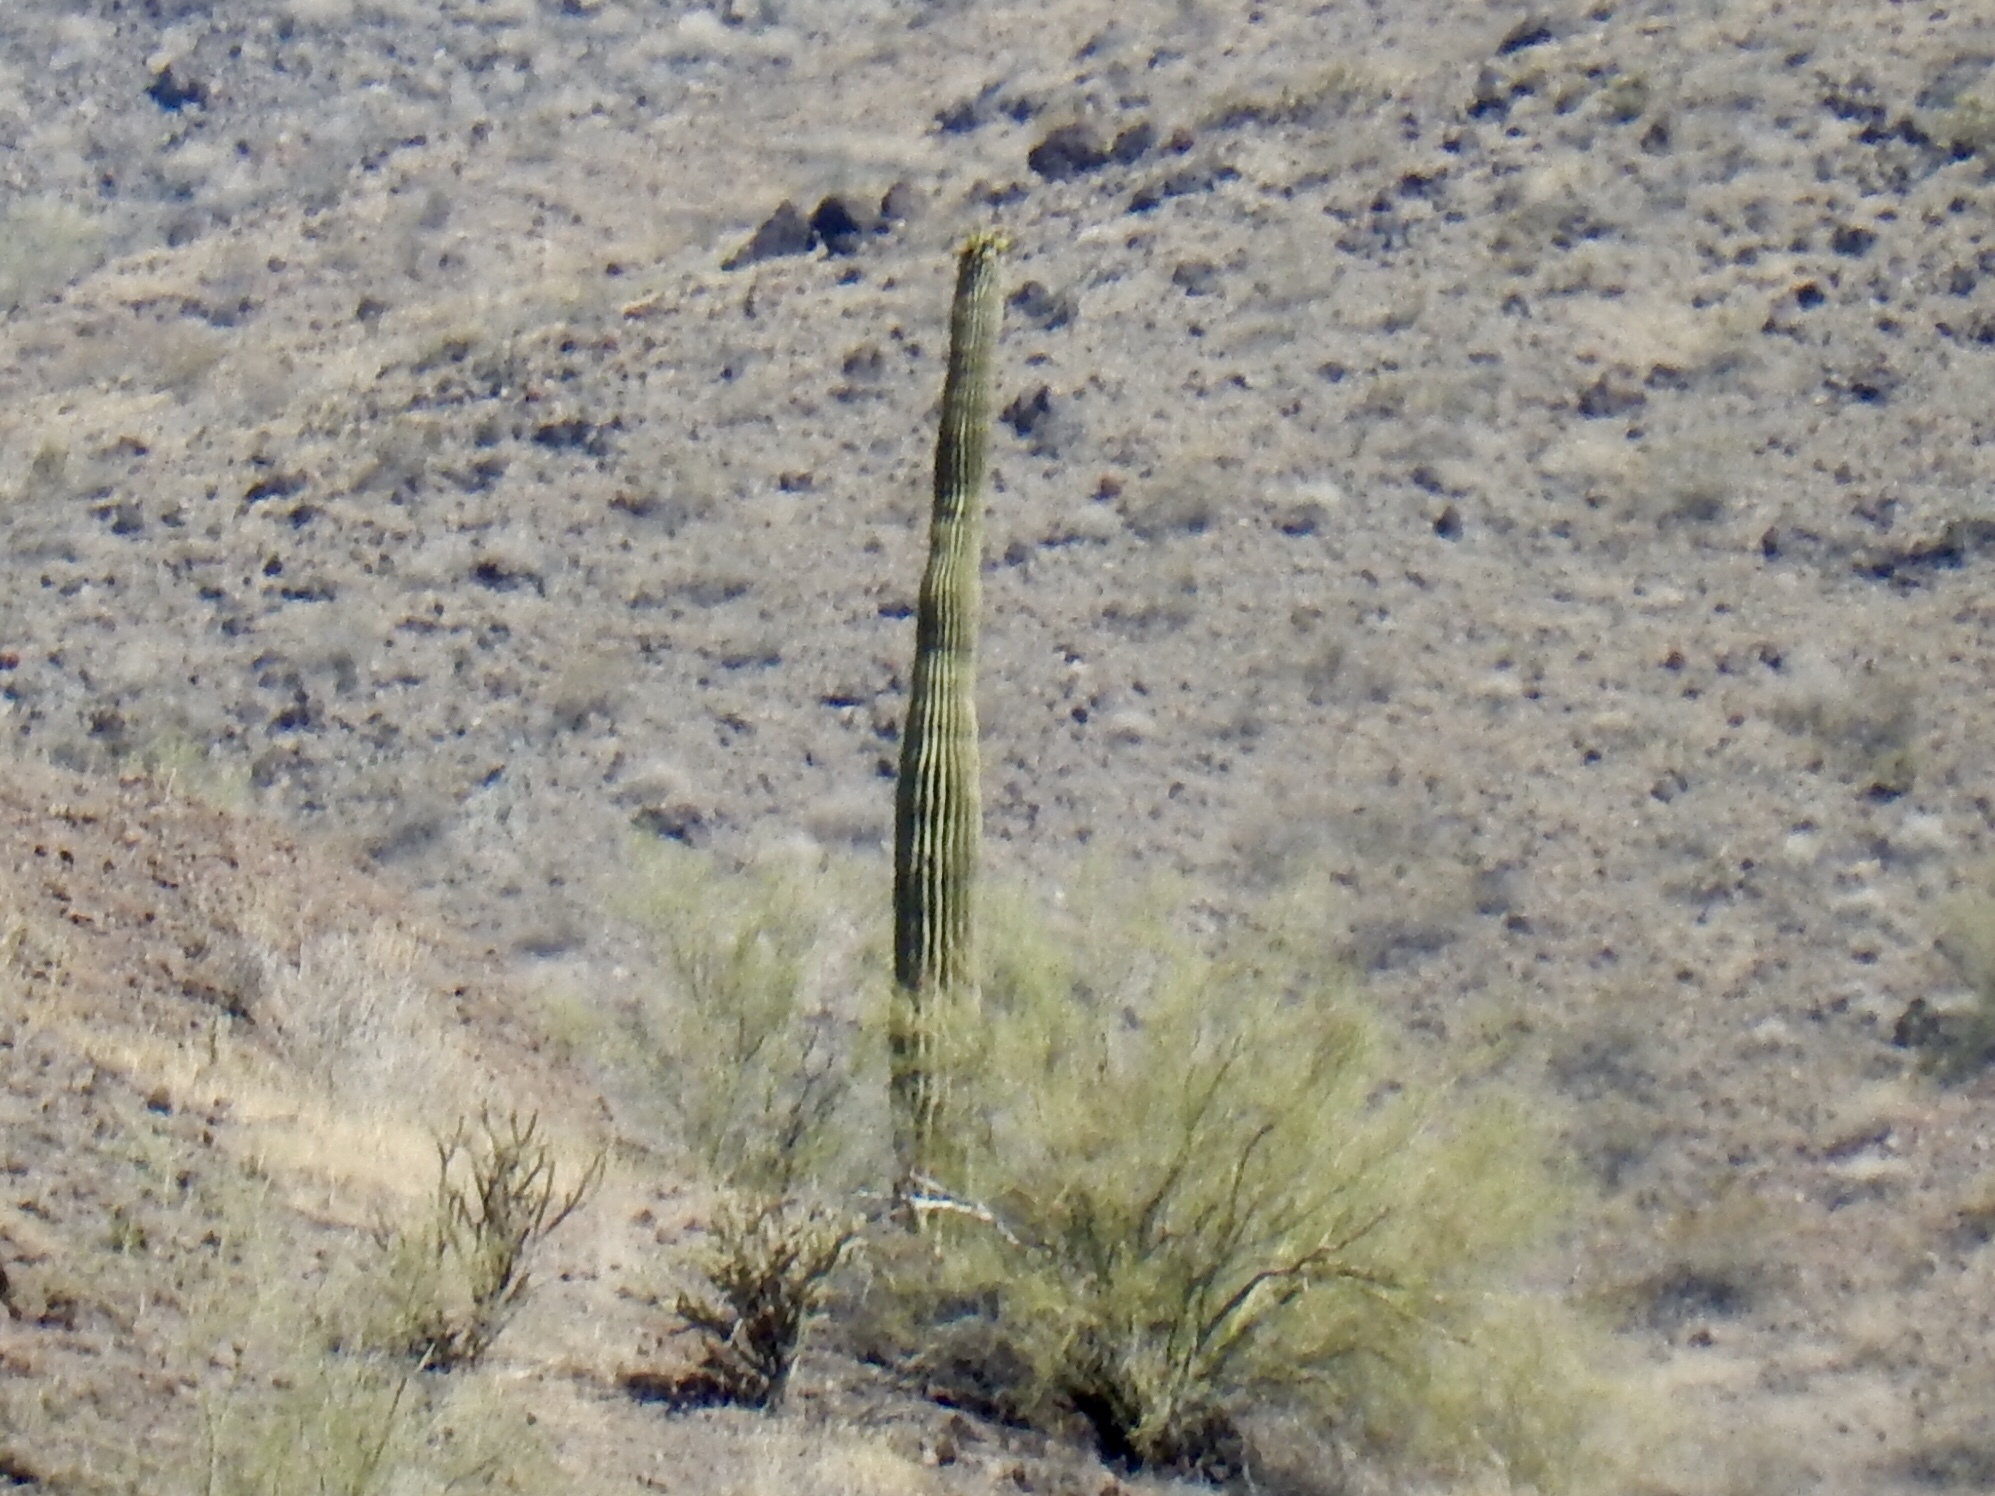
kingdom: Plantae
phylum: Tracheophyta
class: Magnoliopsida
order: Caryophyllales
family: Cactaceae
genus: Carnegiea
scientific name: Carnegiea gigantea
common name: Saguaro
